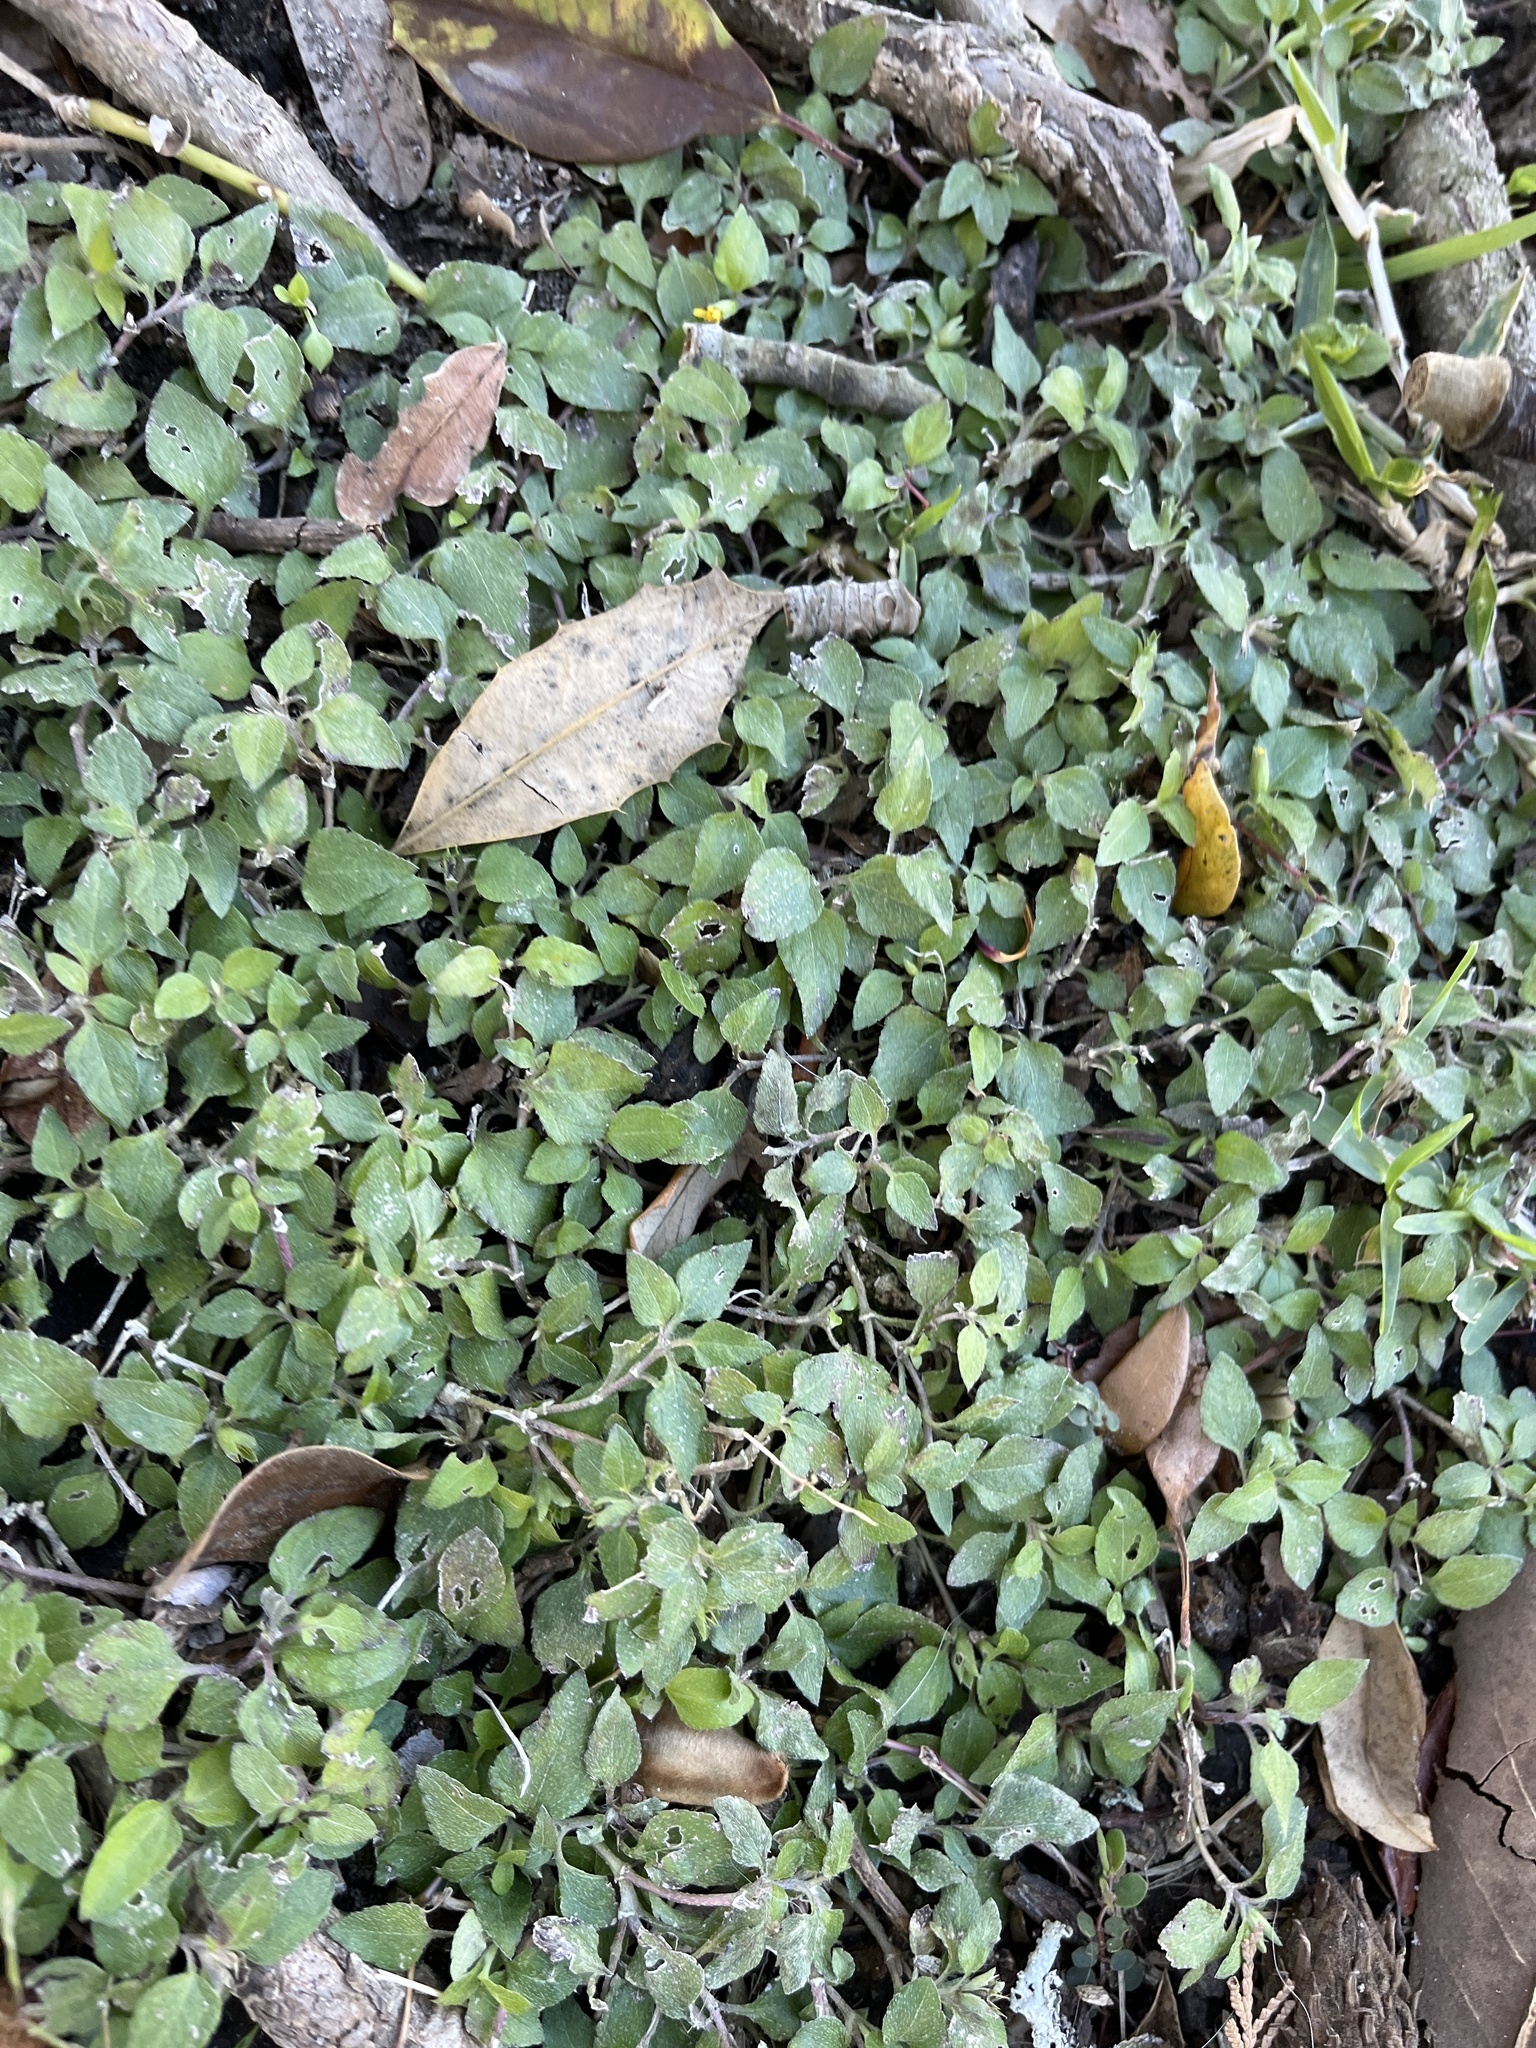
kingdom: Plantae
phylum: Tracheophyta
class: Magnoliopsida
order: Asterales
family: Asteraceae
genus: Calyptocarpus
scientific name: Calyptocarpus vialis
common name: Straggler daisy
